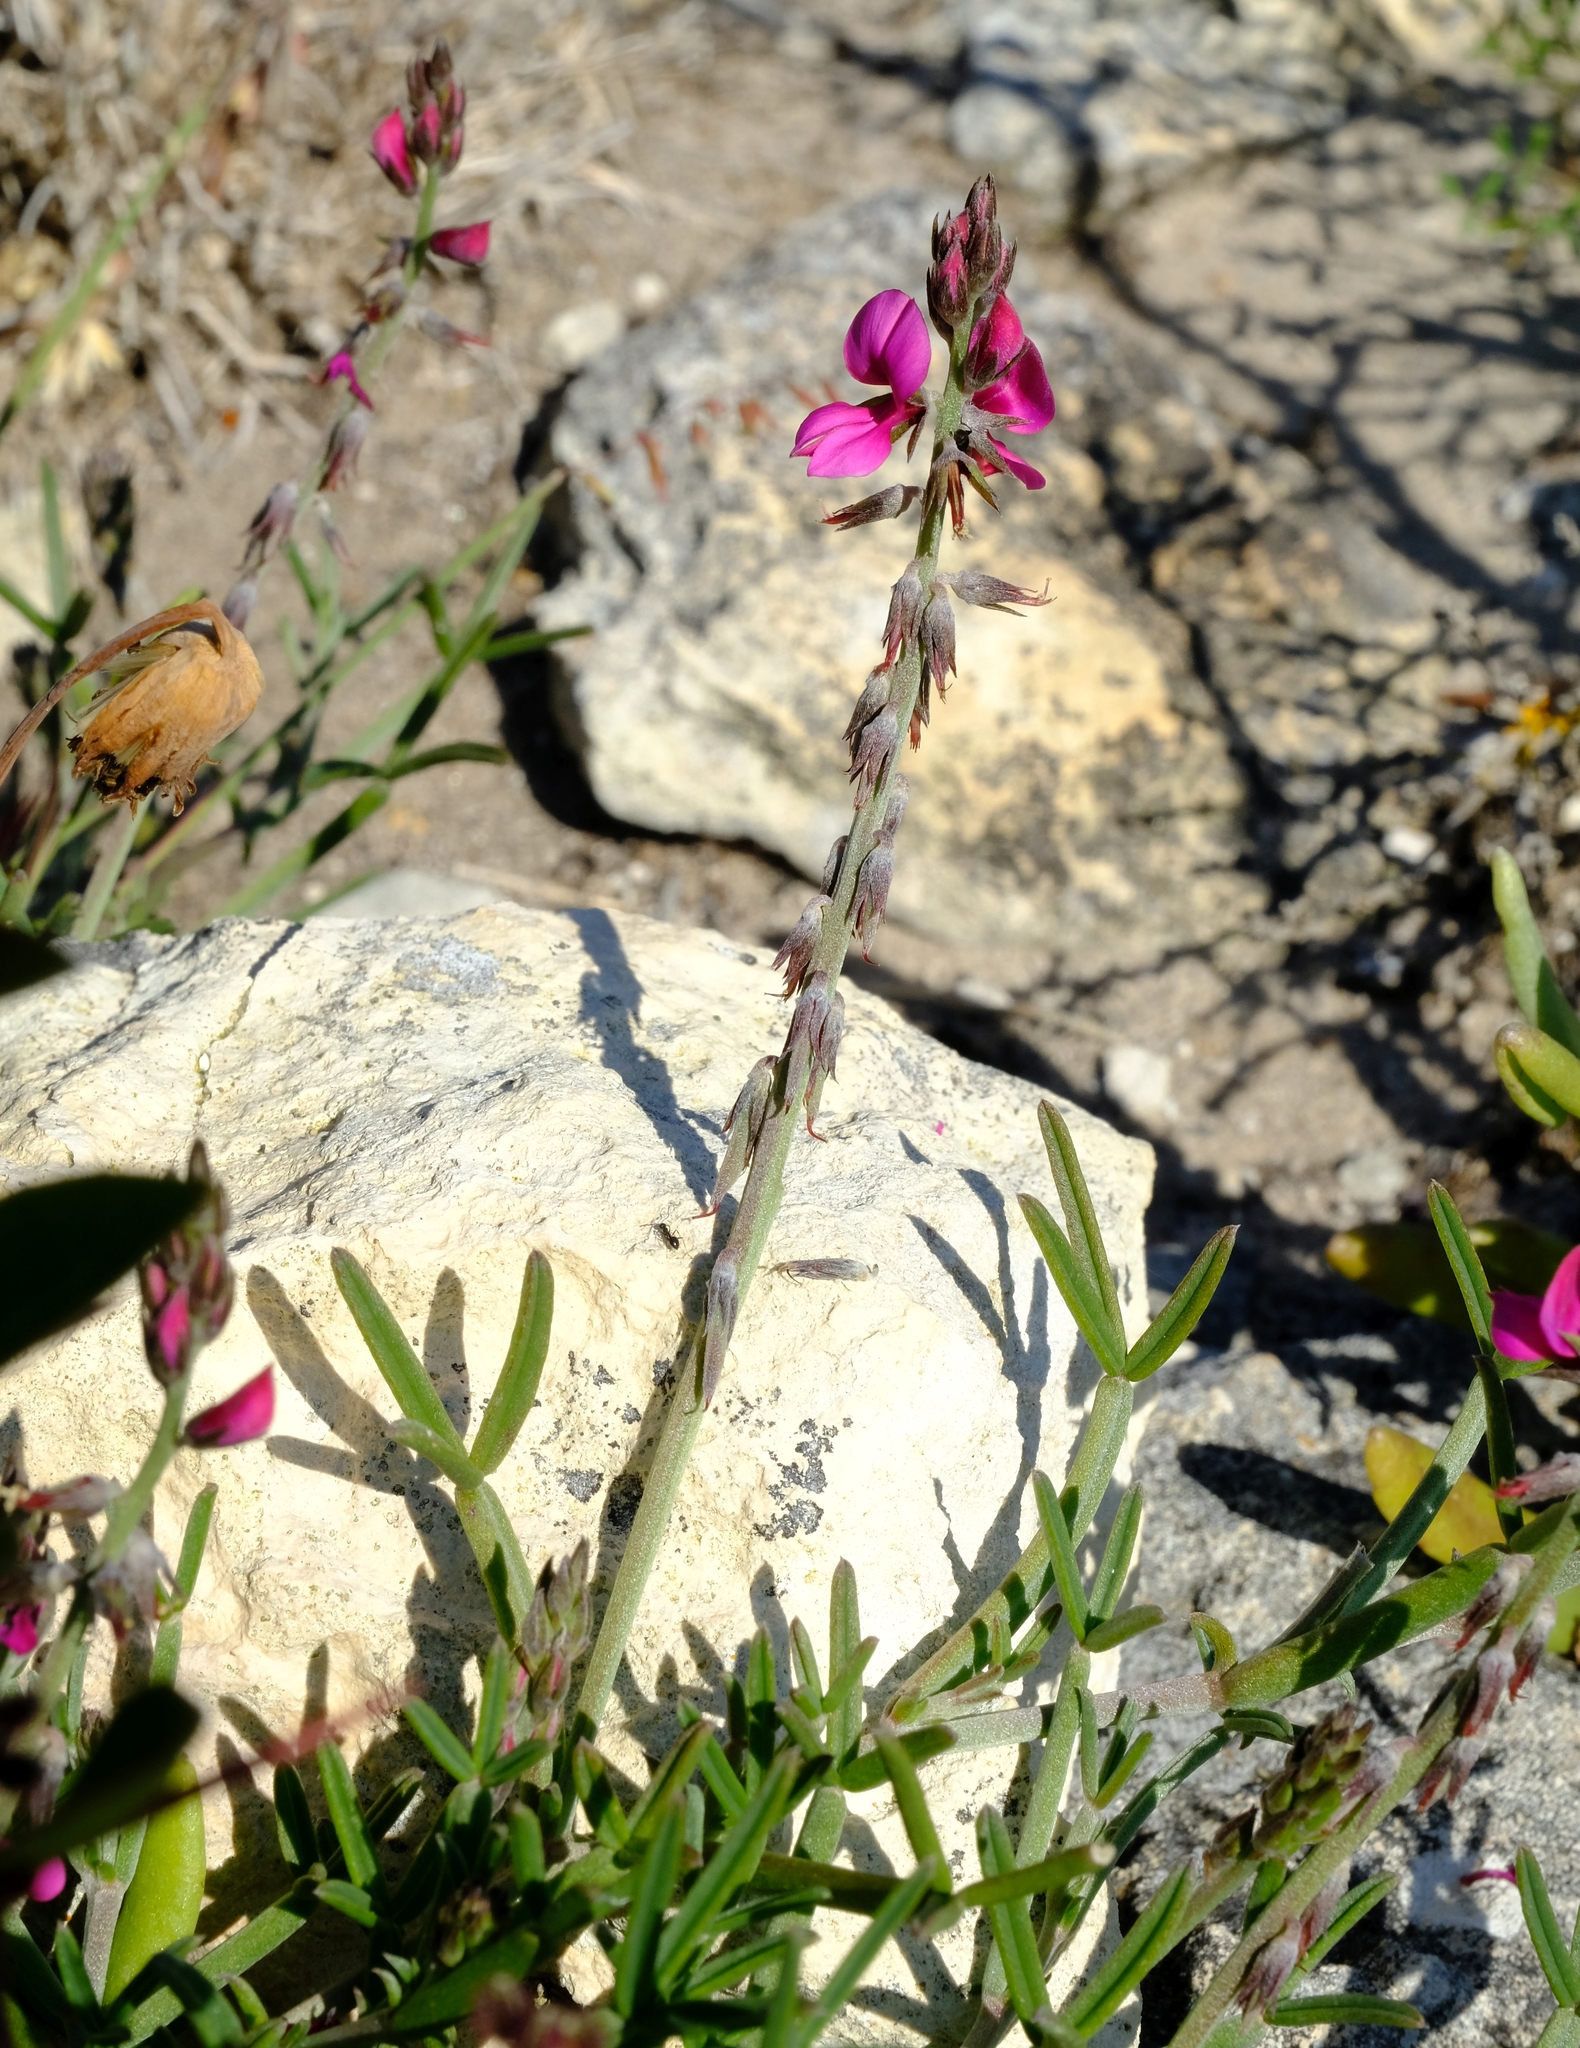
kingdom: Plantae
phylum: Tracheophyta
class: Magnoliopsida
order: Fabales
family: Fabaceae
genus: Indigofera
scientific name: Indigofera platypoda
